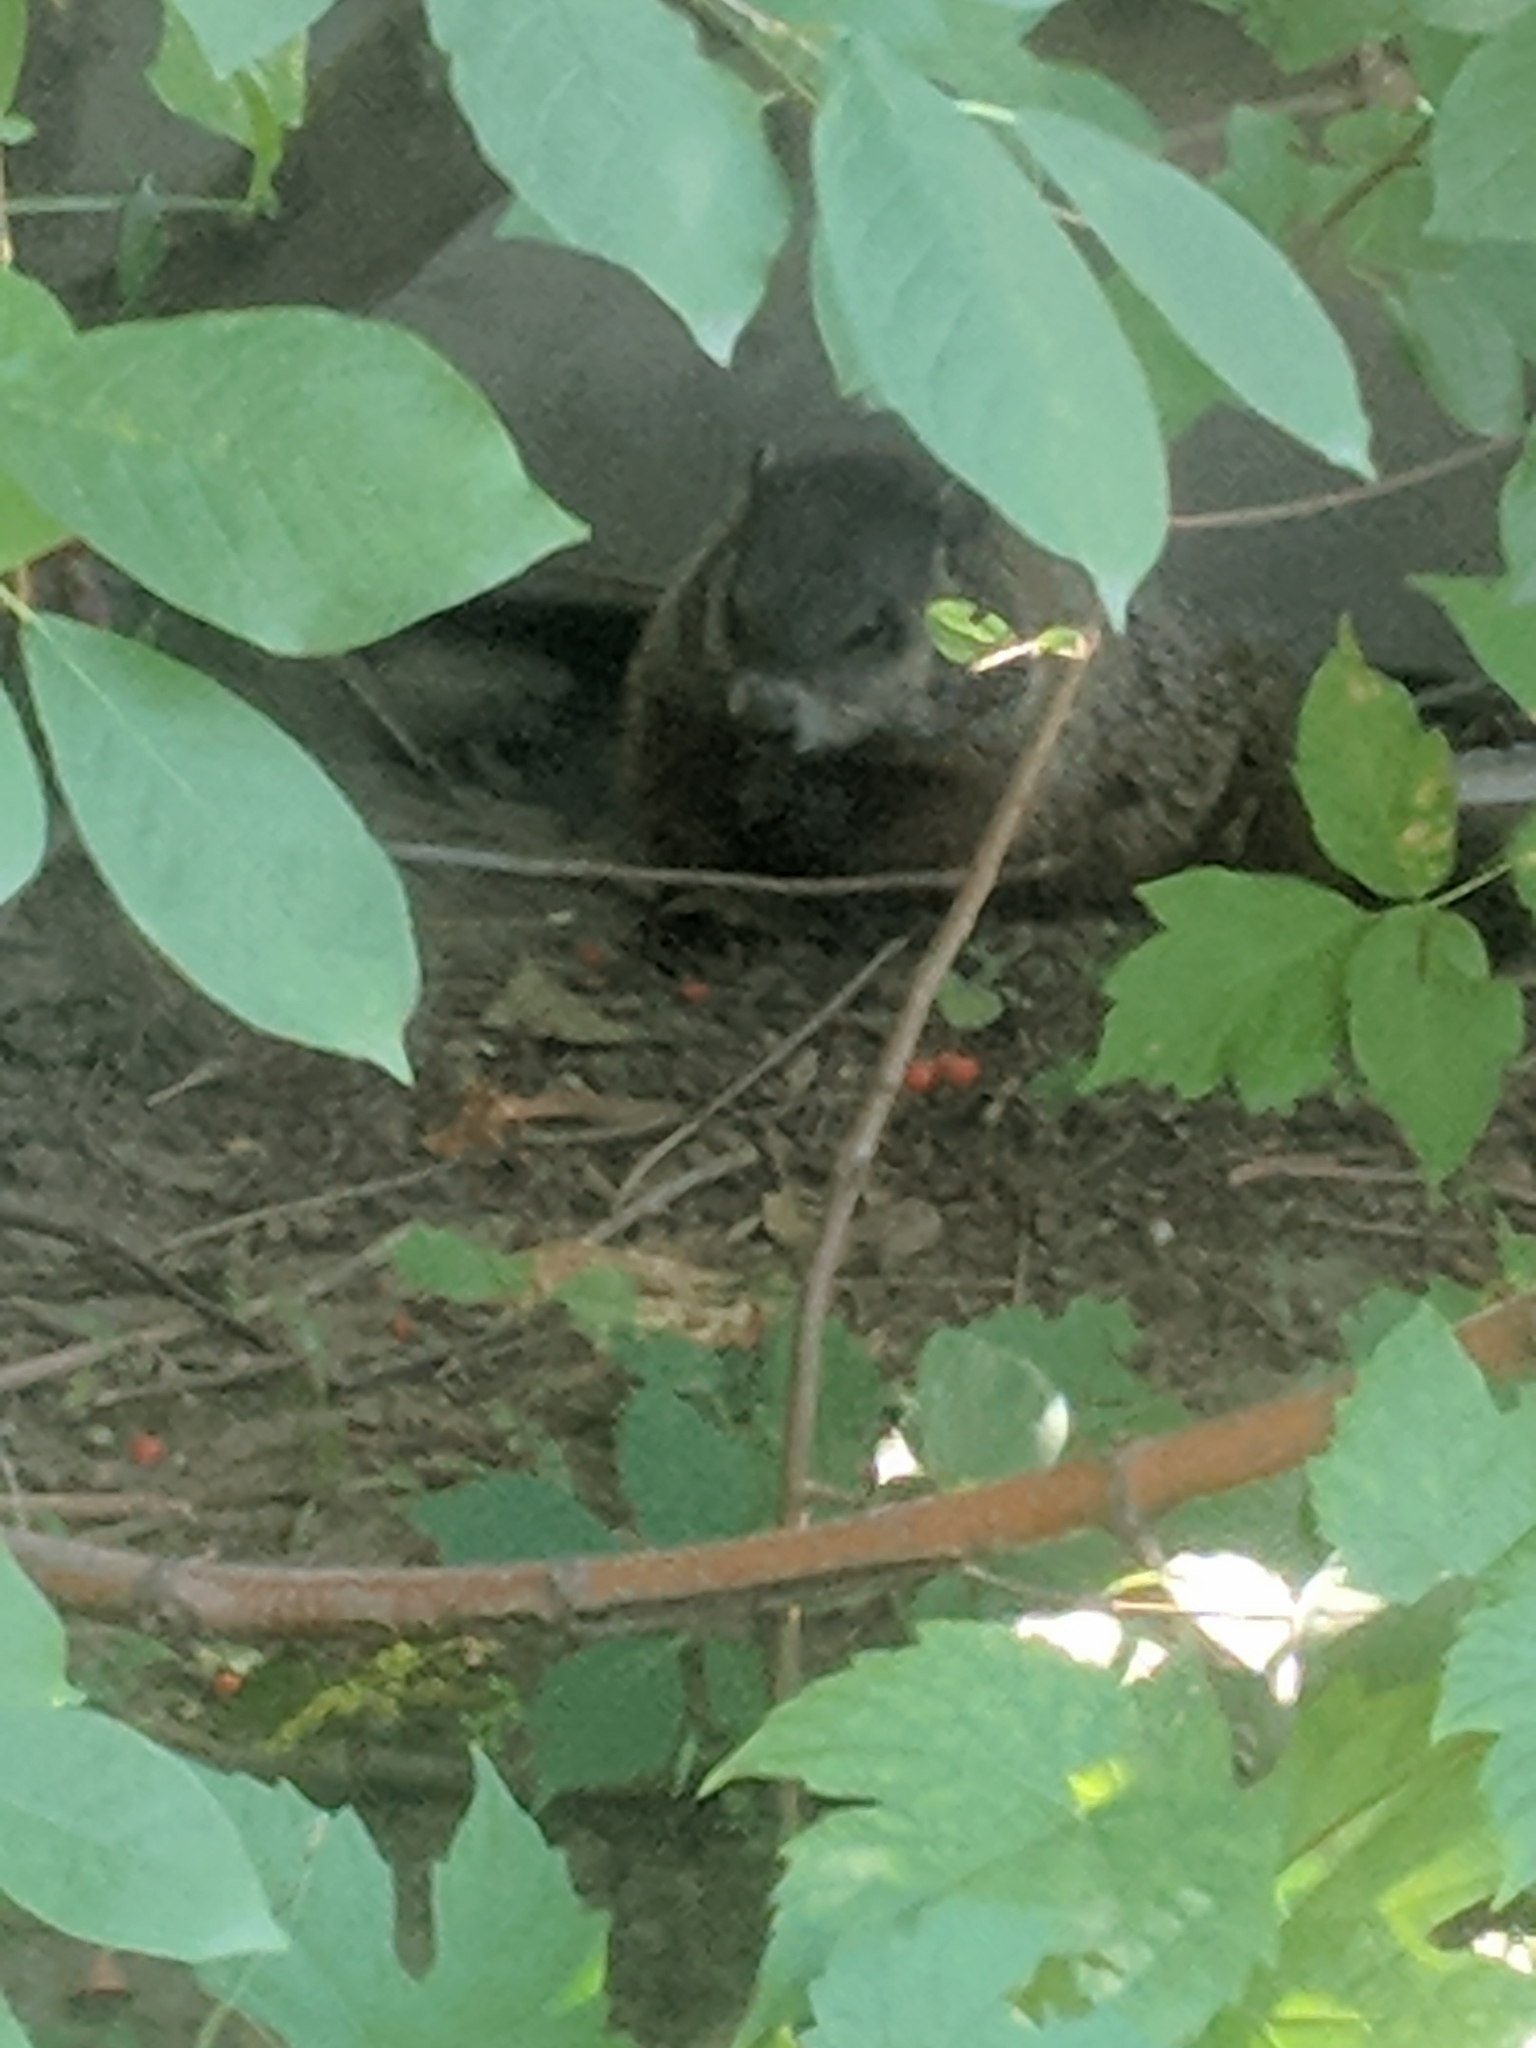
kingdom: Animalia
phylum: Chordata
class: Mammalia
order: Rodentia
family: Sciuridae
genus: Marmota
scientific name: Marmota monax
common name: Groundhog
